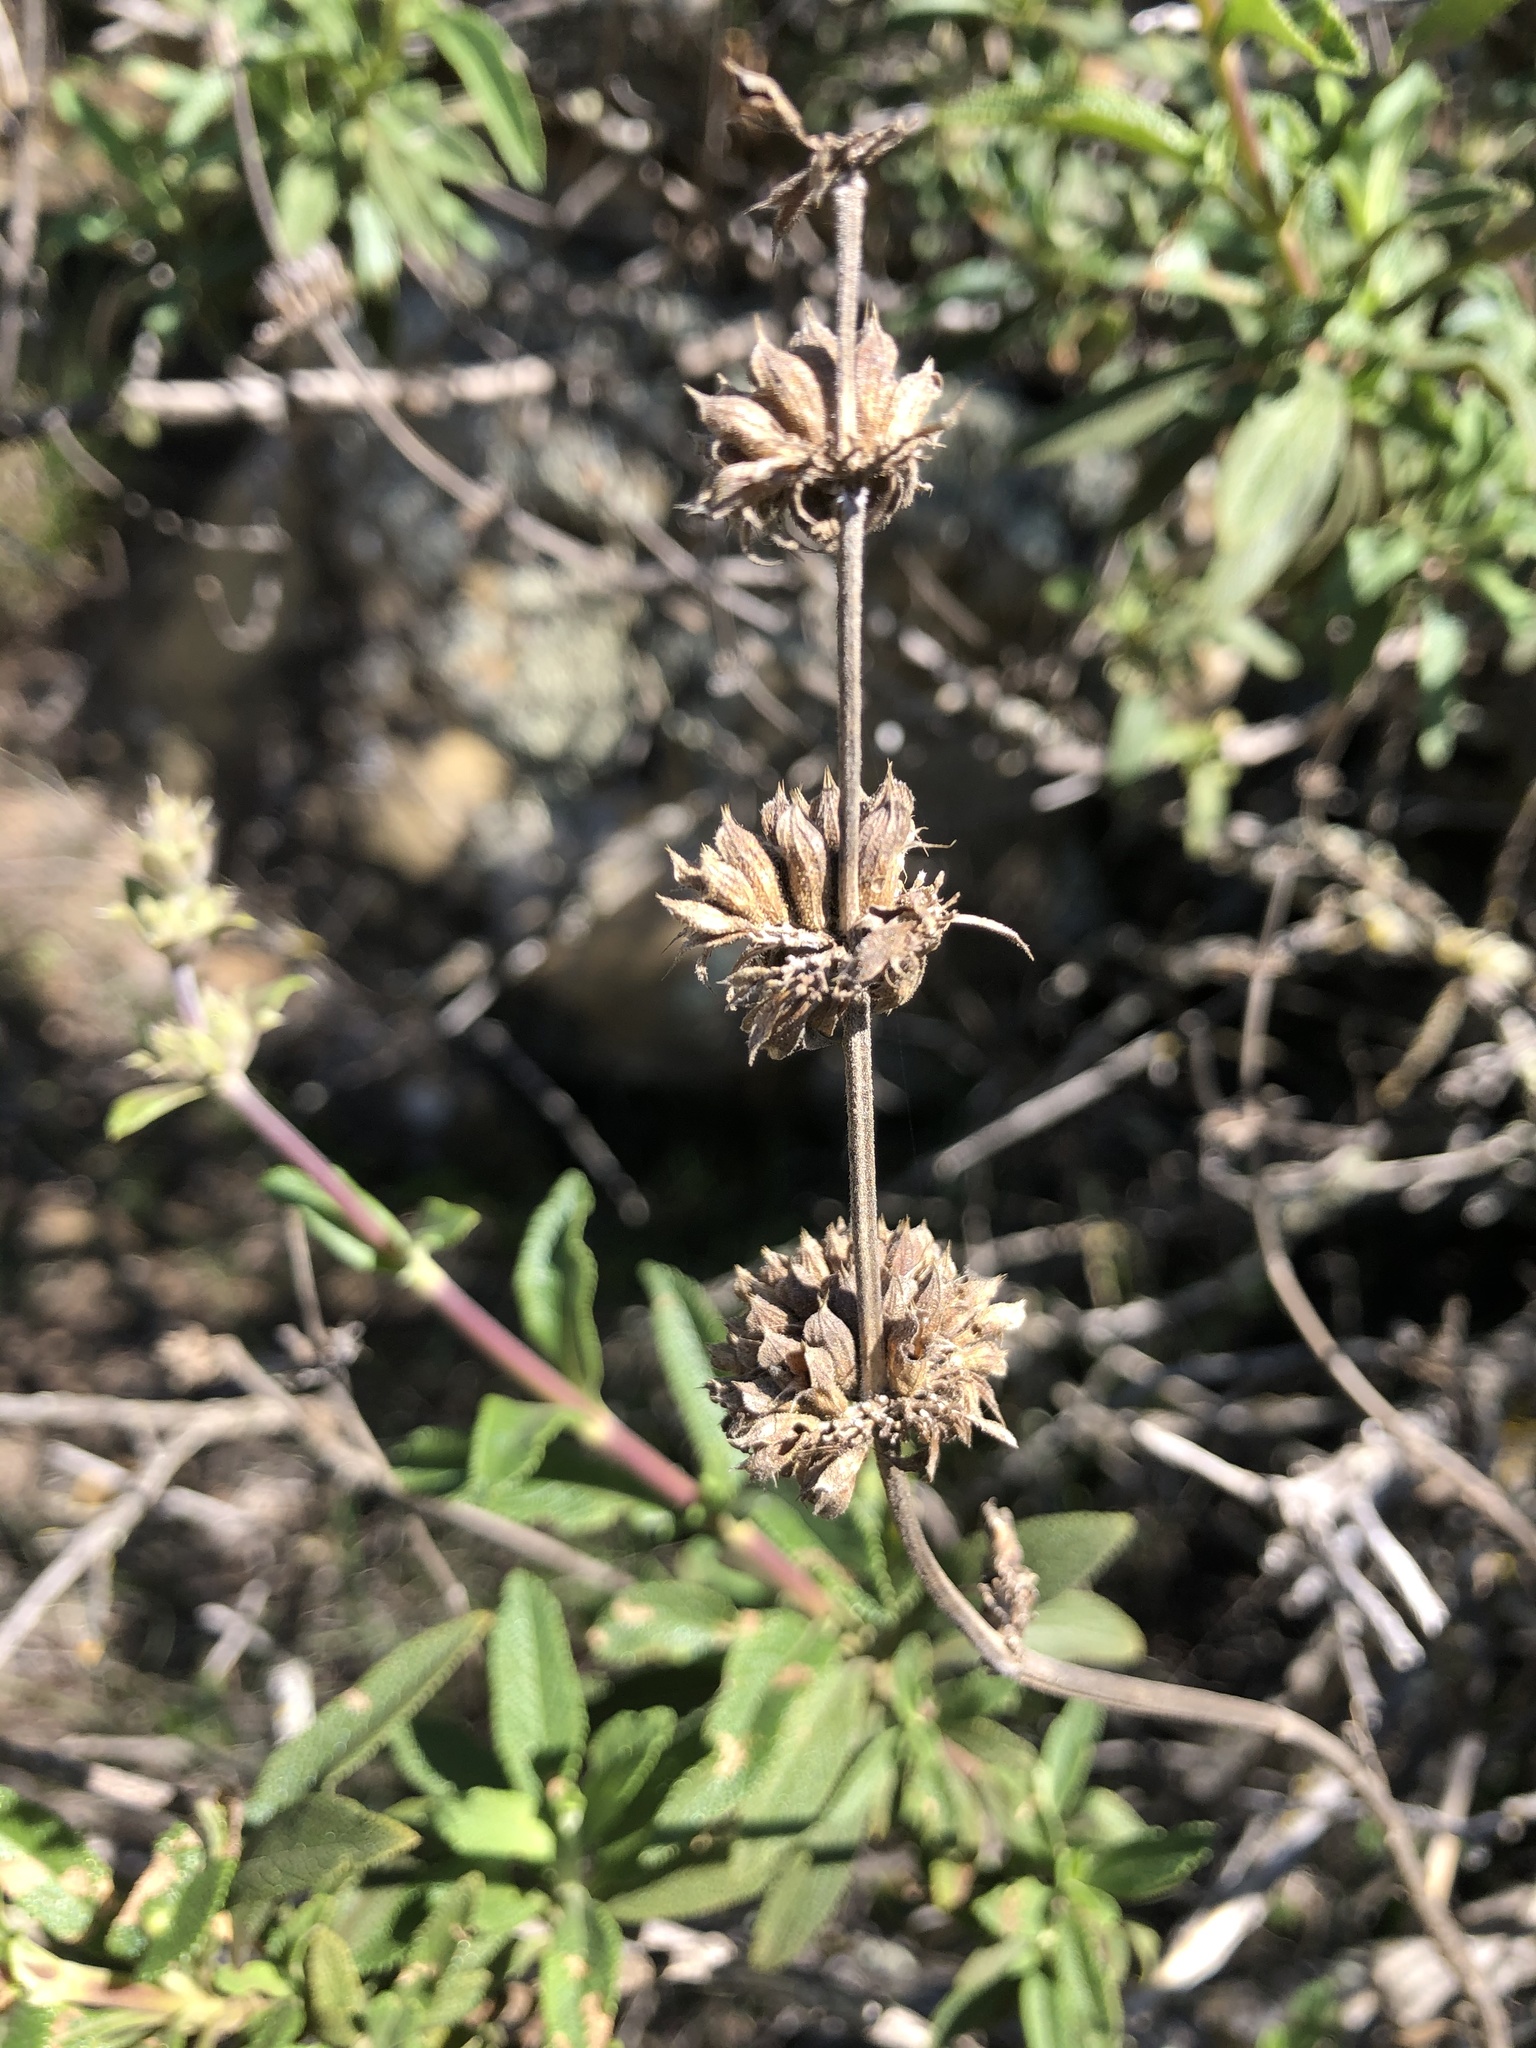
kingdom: Plantae
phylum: Tracheophyta
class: Magnoliopsida
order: Lamiales
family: Lamiaceae
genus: Salvia
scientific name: Salvia mellifera
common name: Black sage
